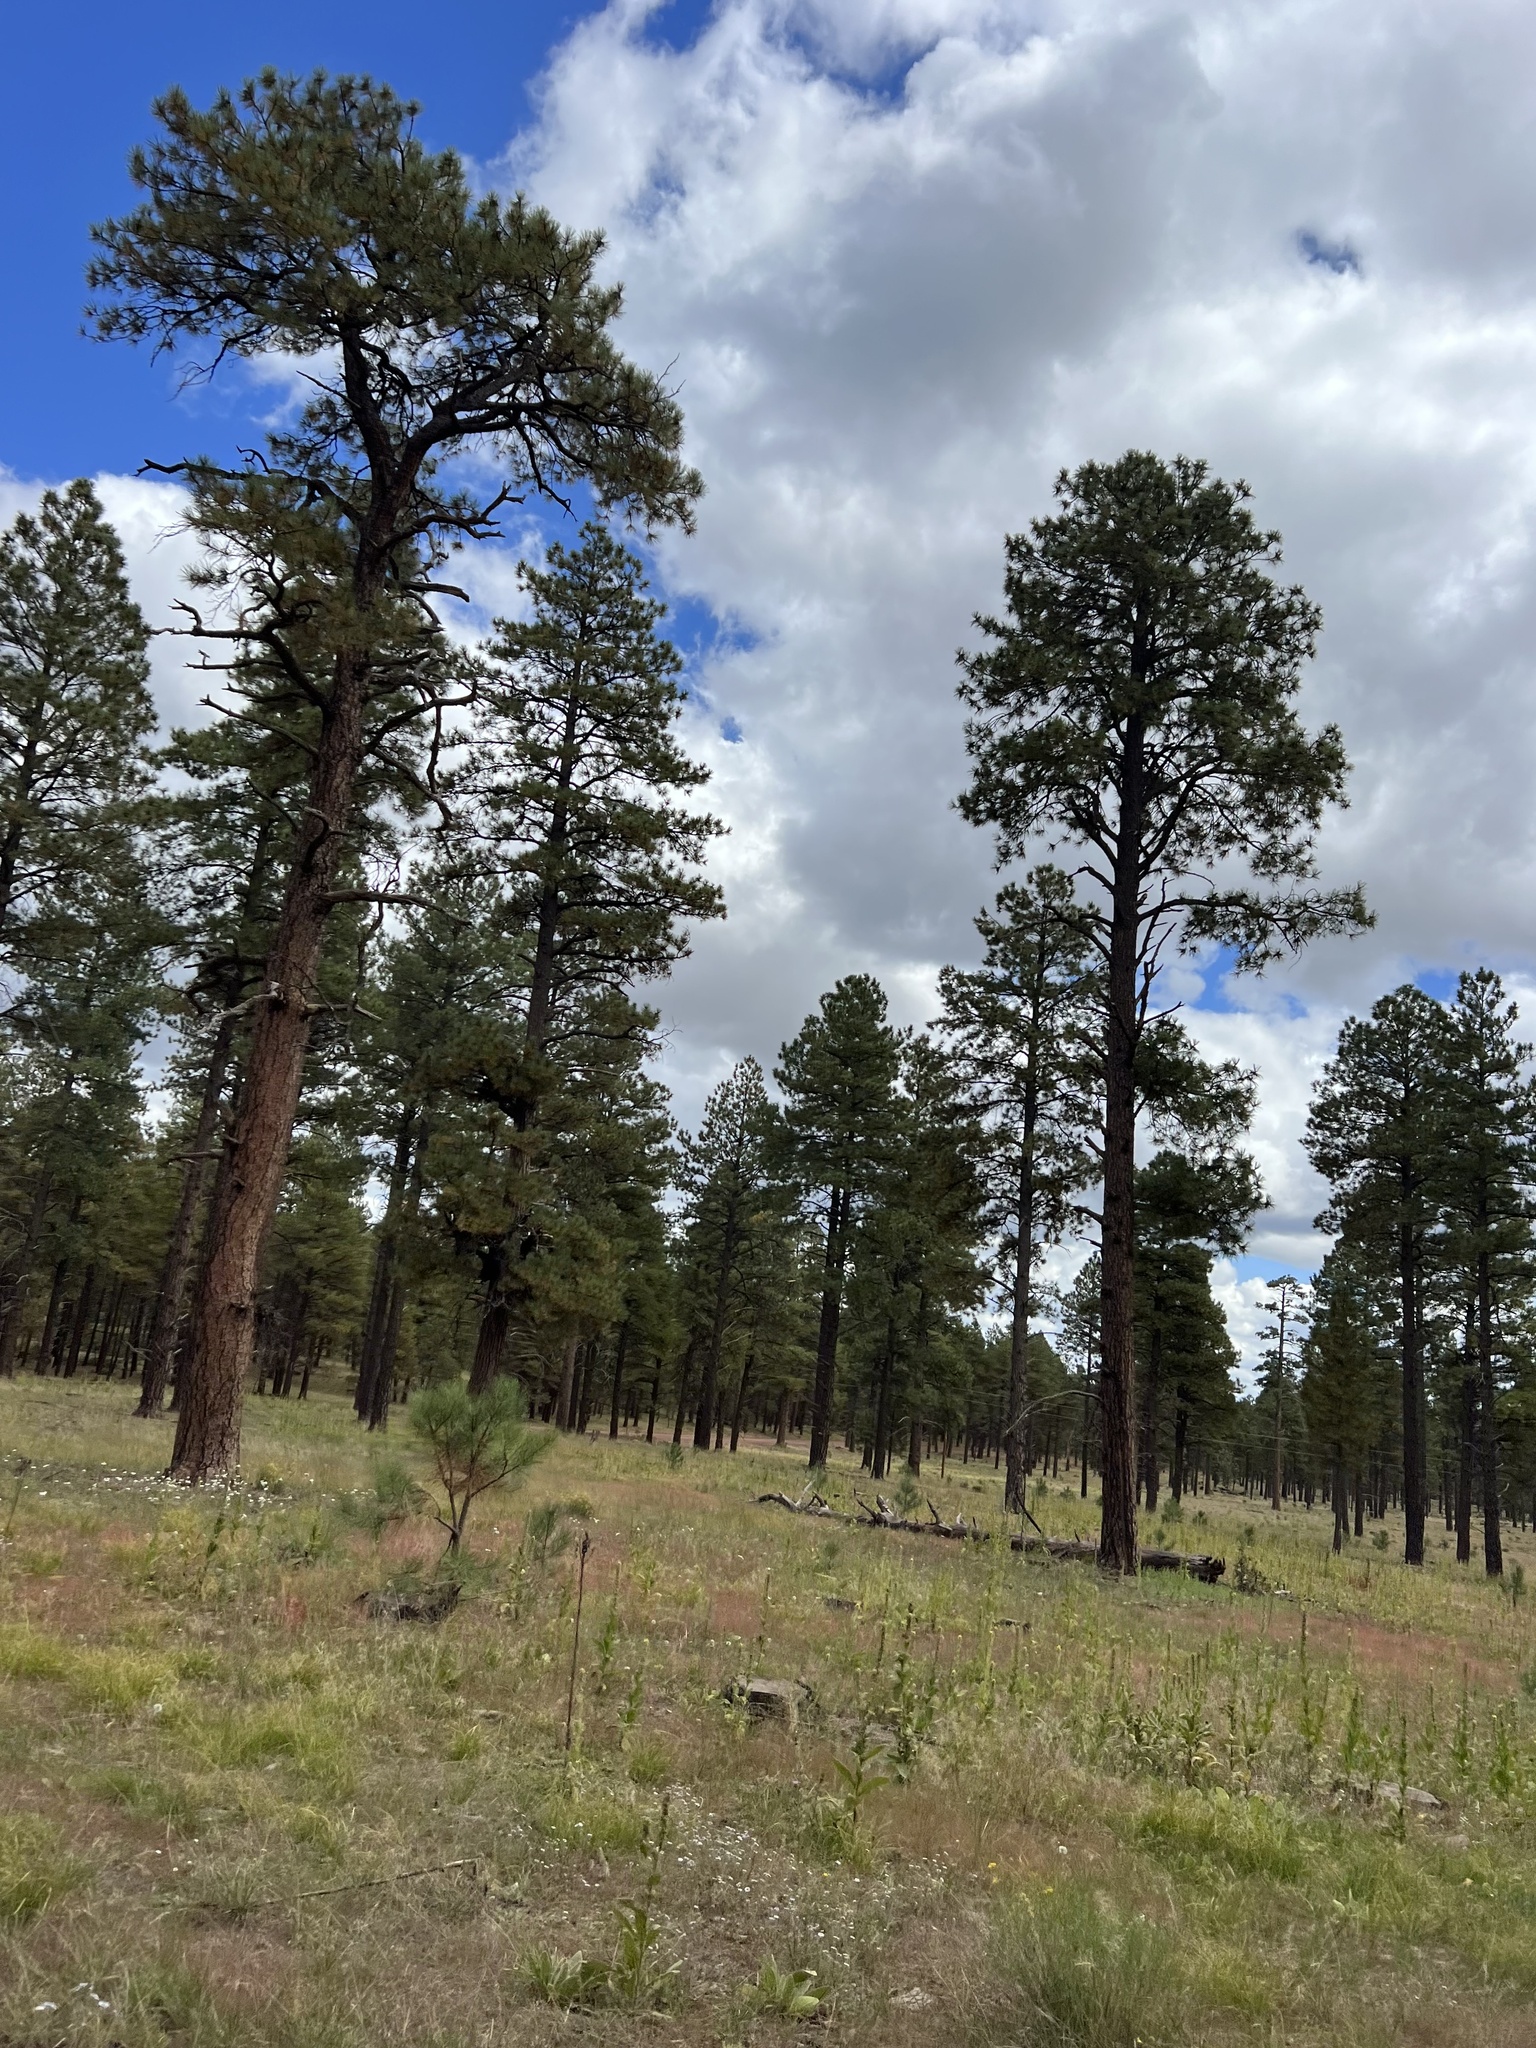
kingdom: Plantae
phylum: Tracheophyta
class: Pinopsida
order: Pinales
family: Pinaceae
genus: Pinus
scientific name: Pinus ponderosa
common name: Western yellow-pine
